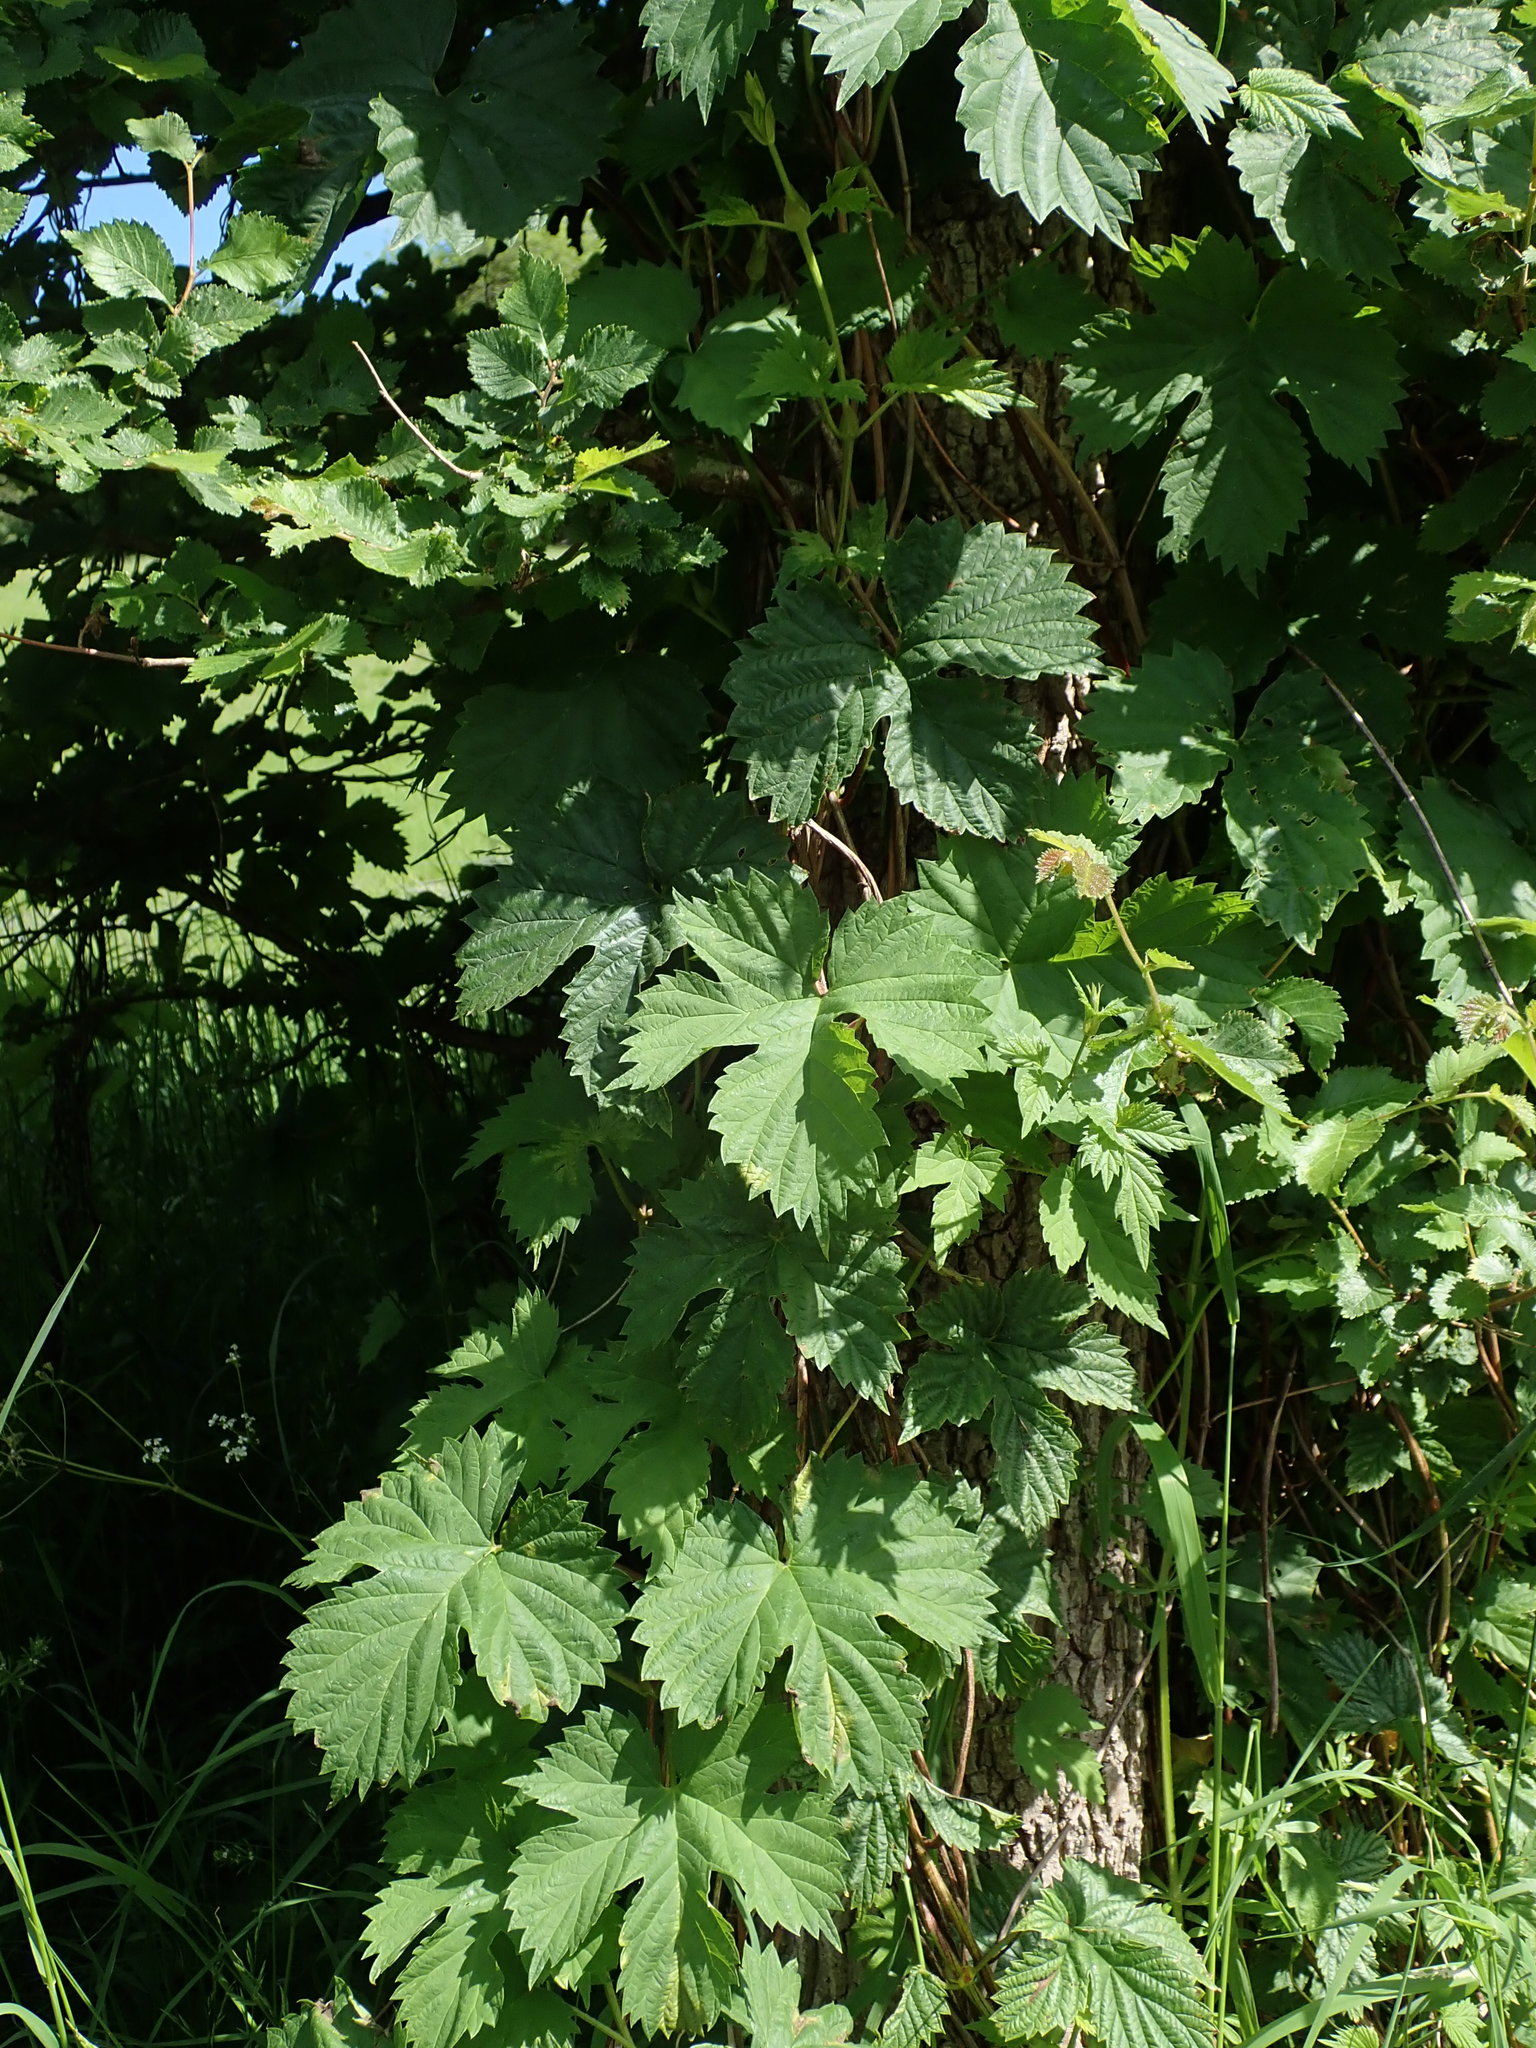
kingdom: Plantae
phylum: Tracheophyta
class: Magnoliopsida
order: Rosales
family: Cannabaceae
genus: Humulus
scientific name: Humulus lupulus
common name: Hop
